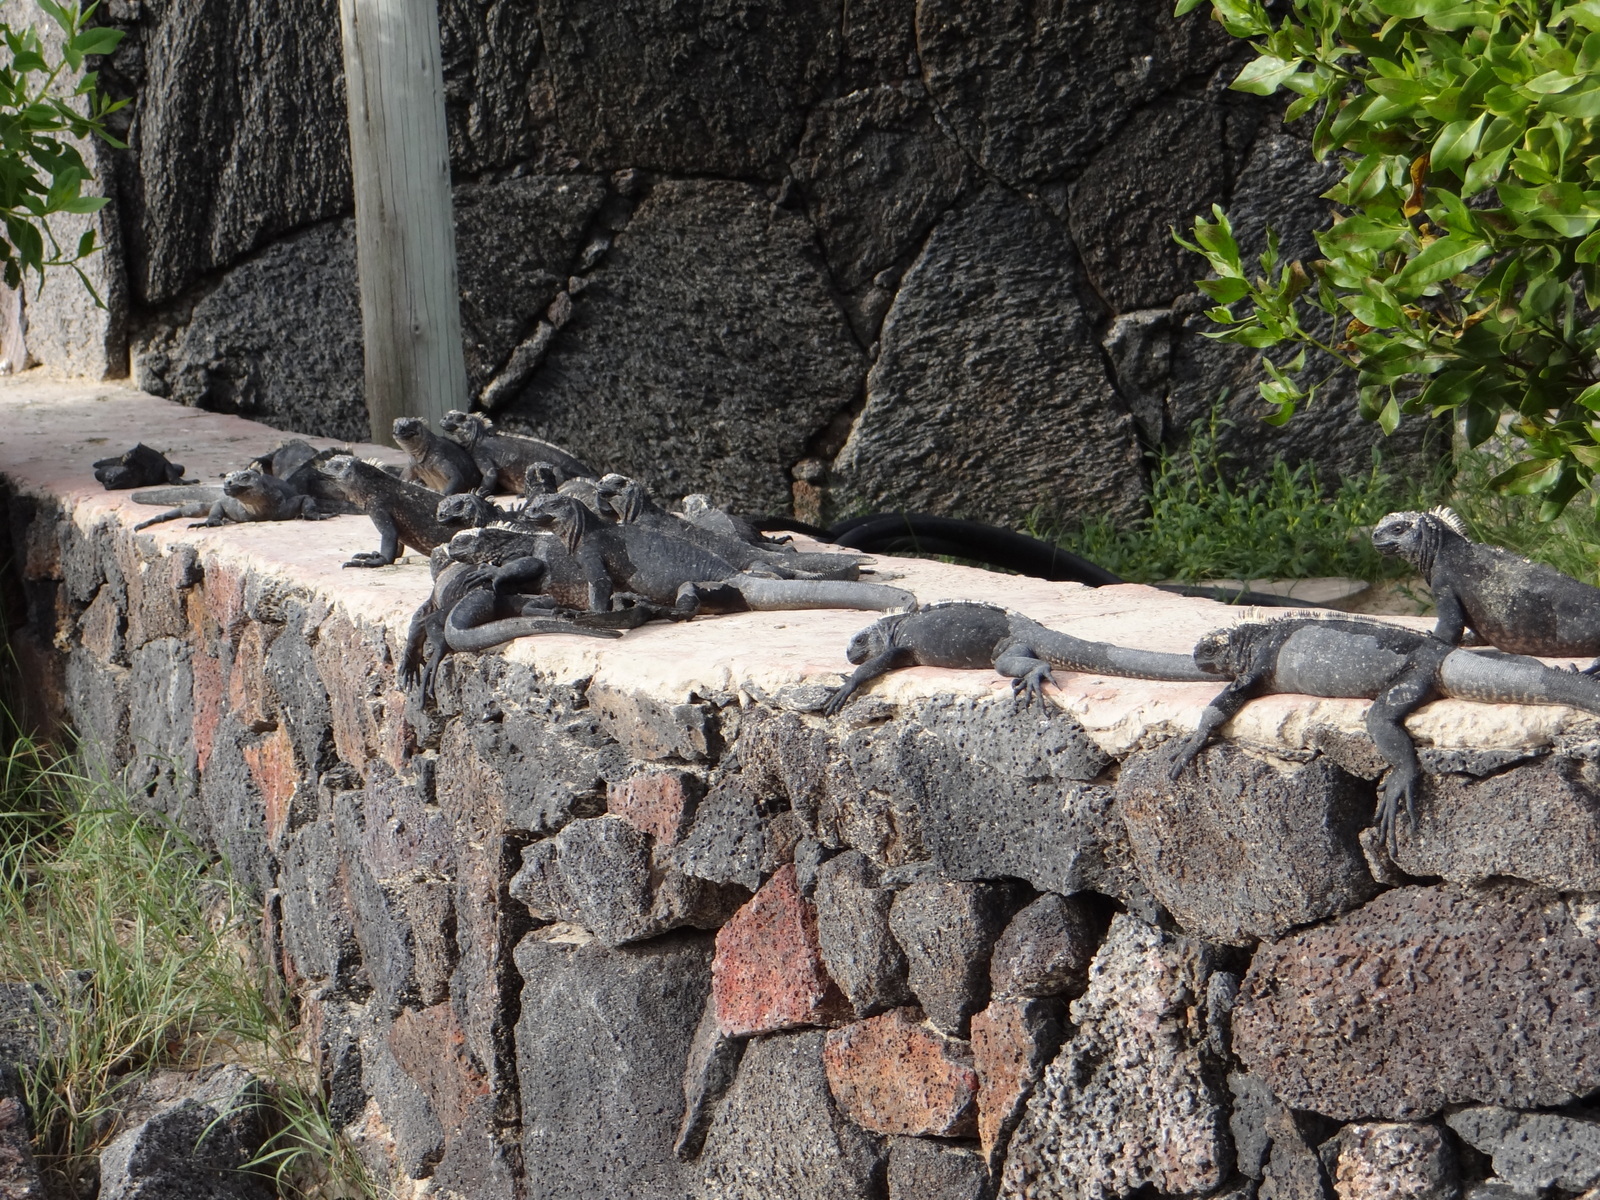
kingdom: Animalia
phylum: Chordata
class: Squamata
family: Iguanidae
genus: Amblyrhynchus
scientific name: Amblyrhynchus cristatus
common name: Marine iguana
